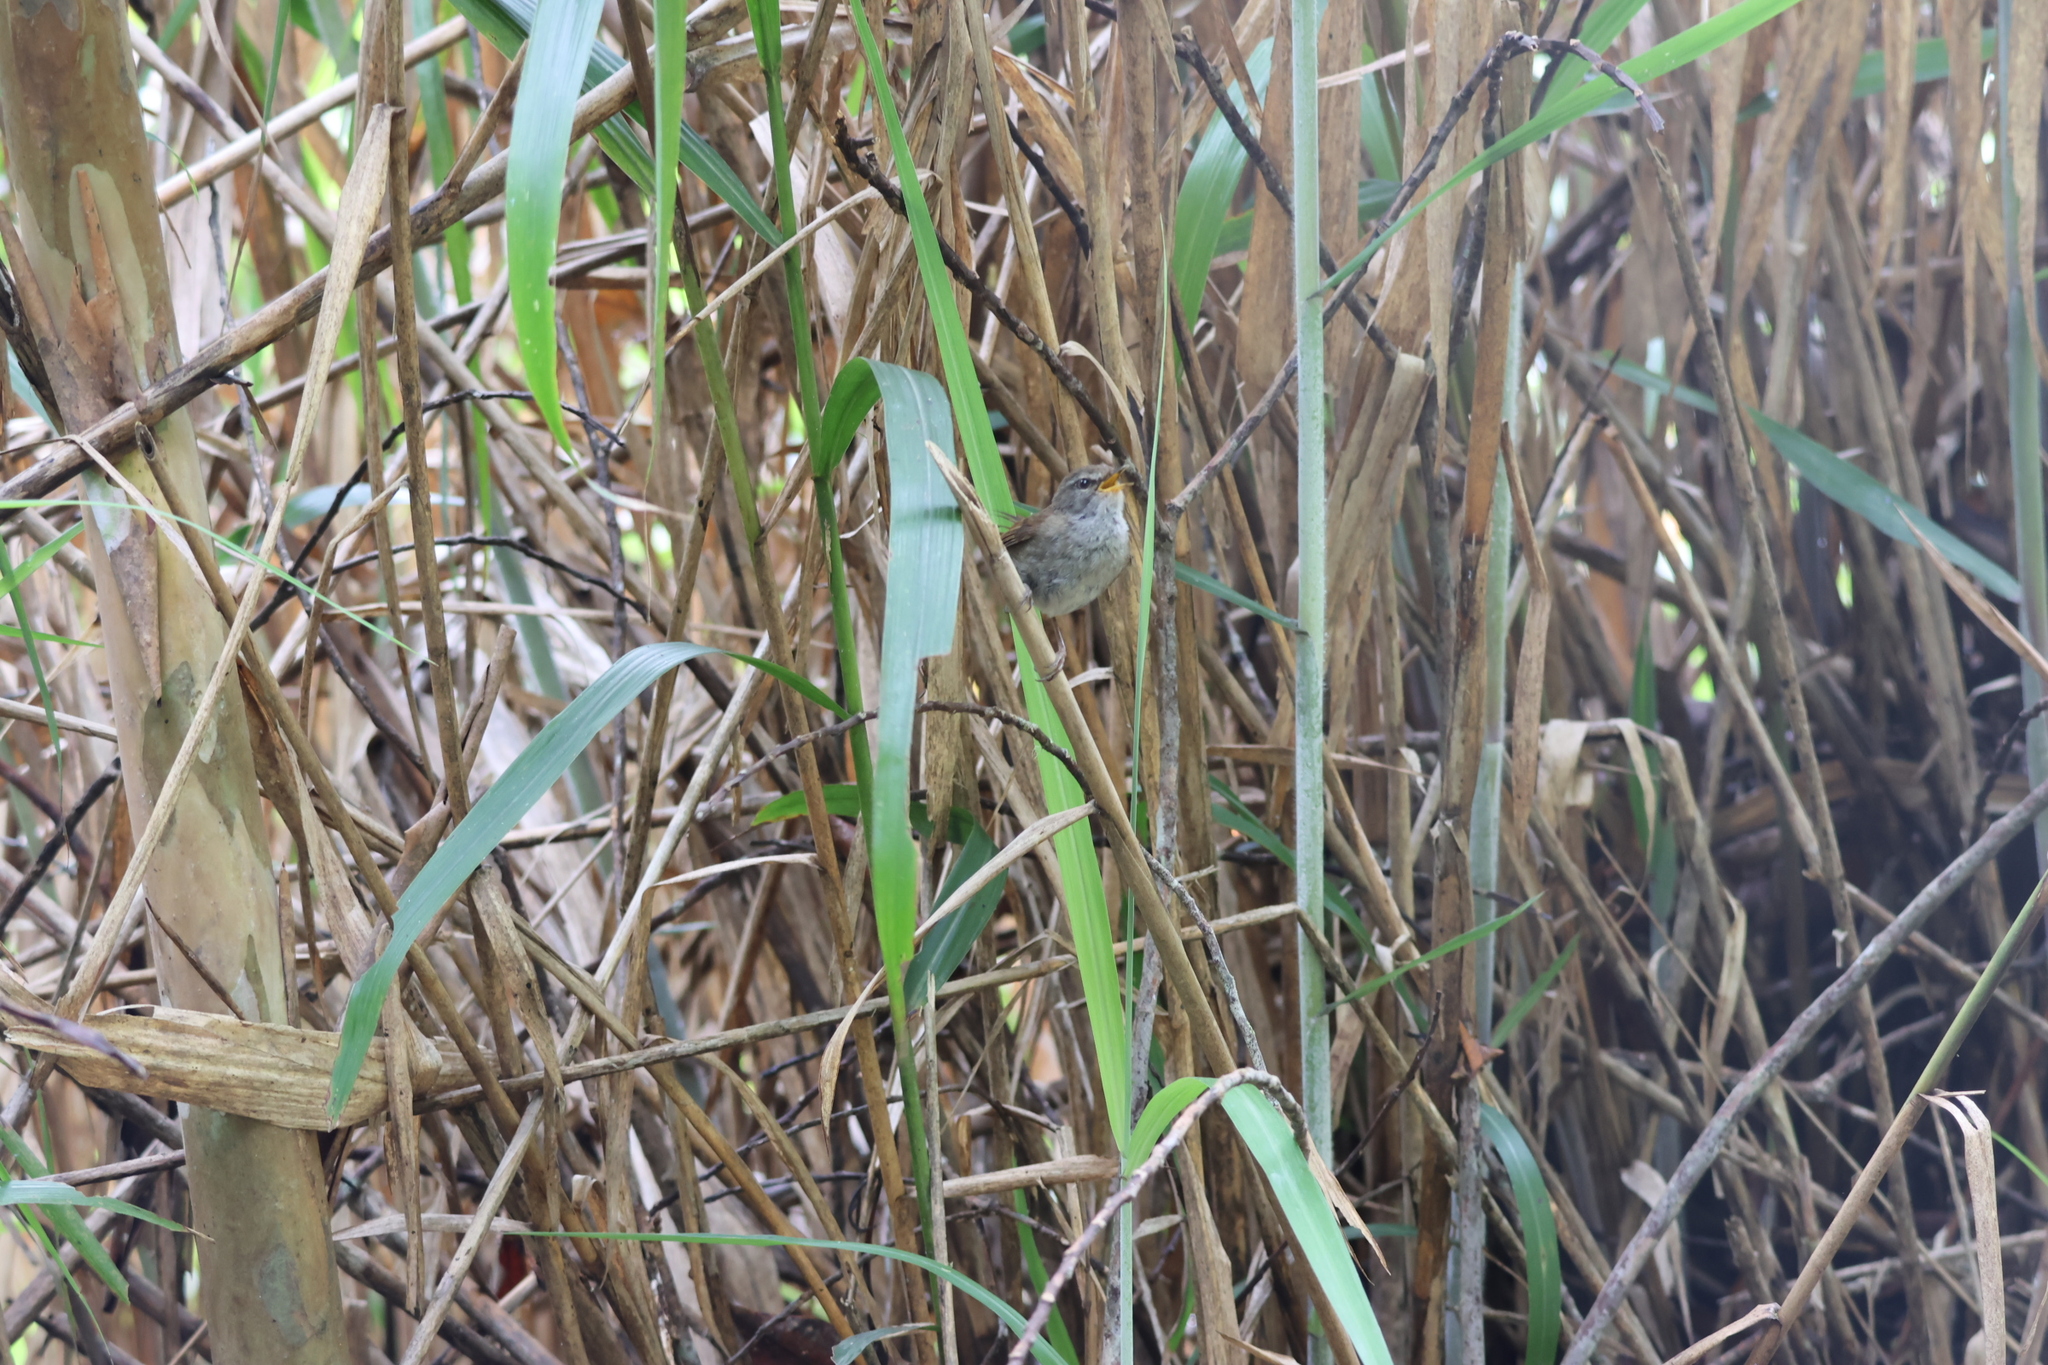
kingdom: Animalia
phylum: Chordata
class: Aves
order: Passeriformes
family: Cettiidae
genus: Horornis
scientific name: Horornis flavolivaceus
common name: Aberrant bush warbler
